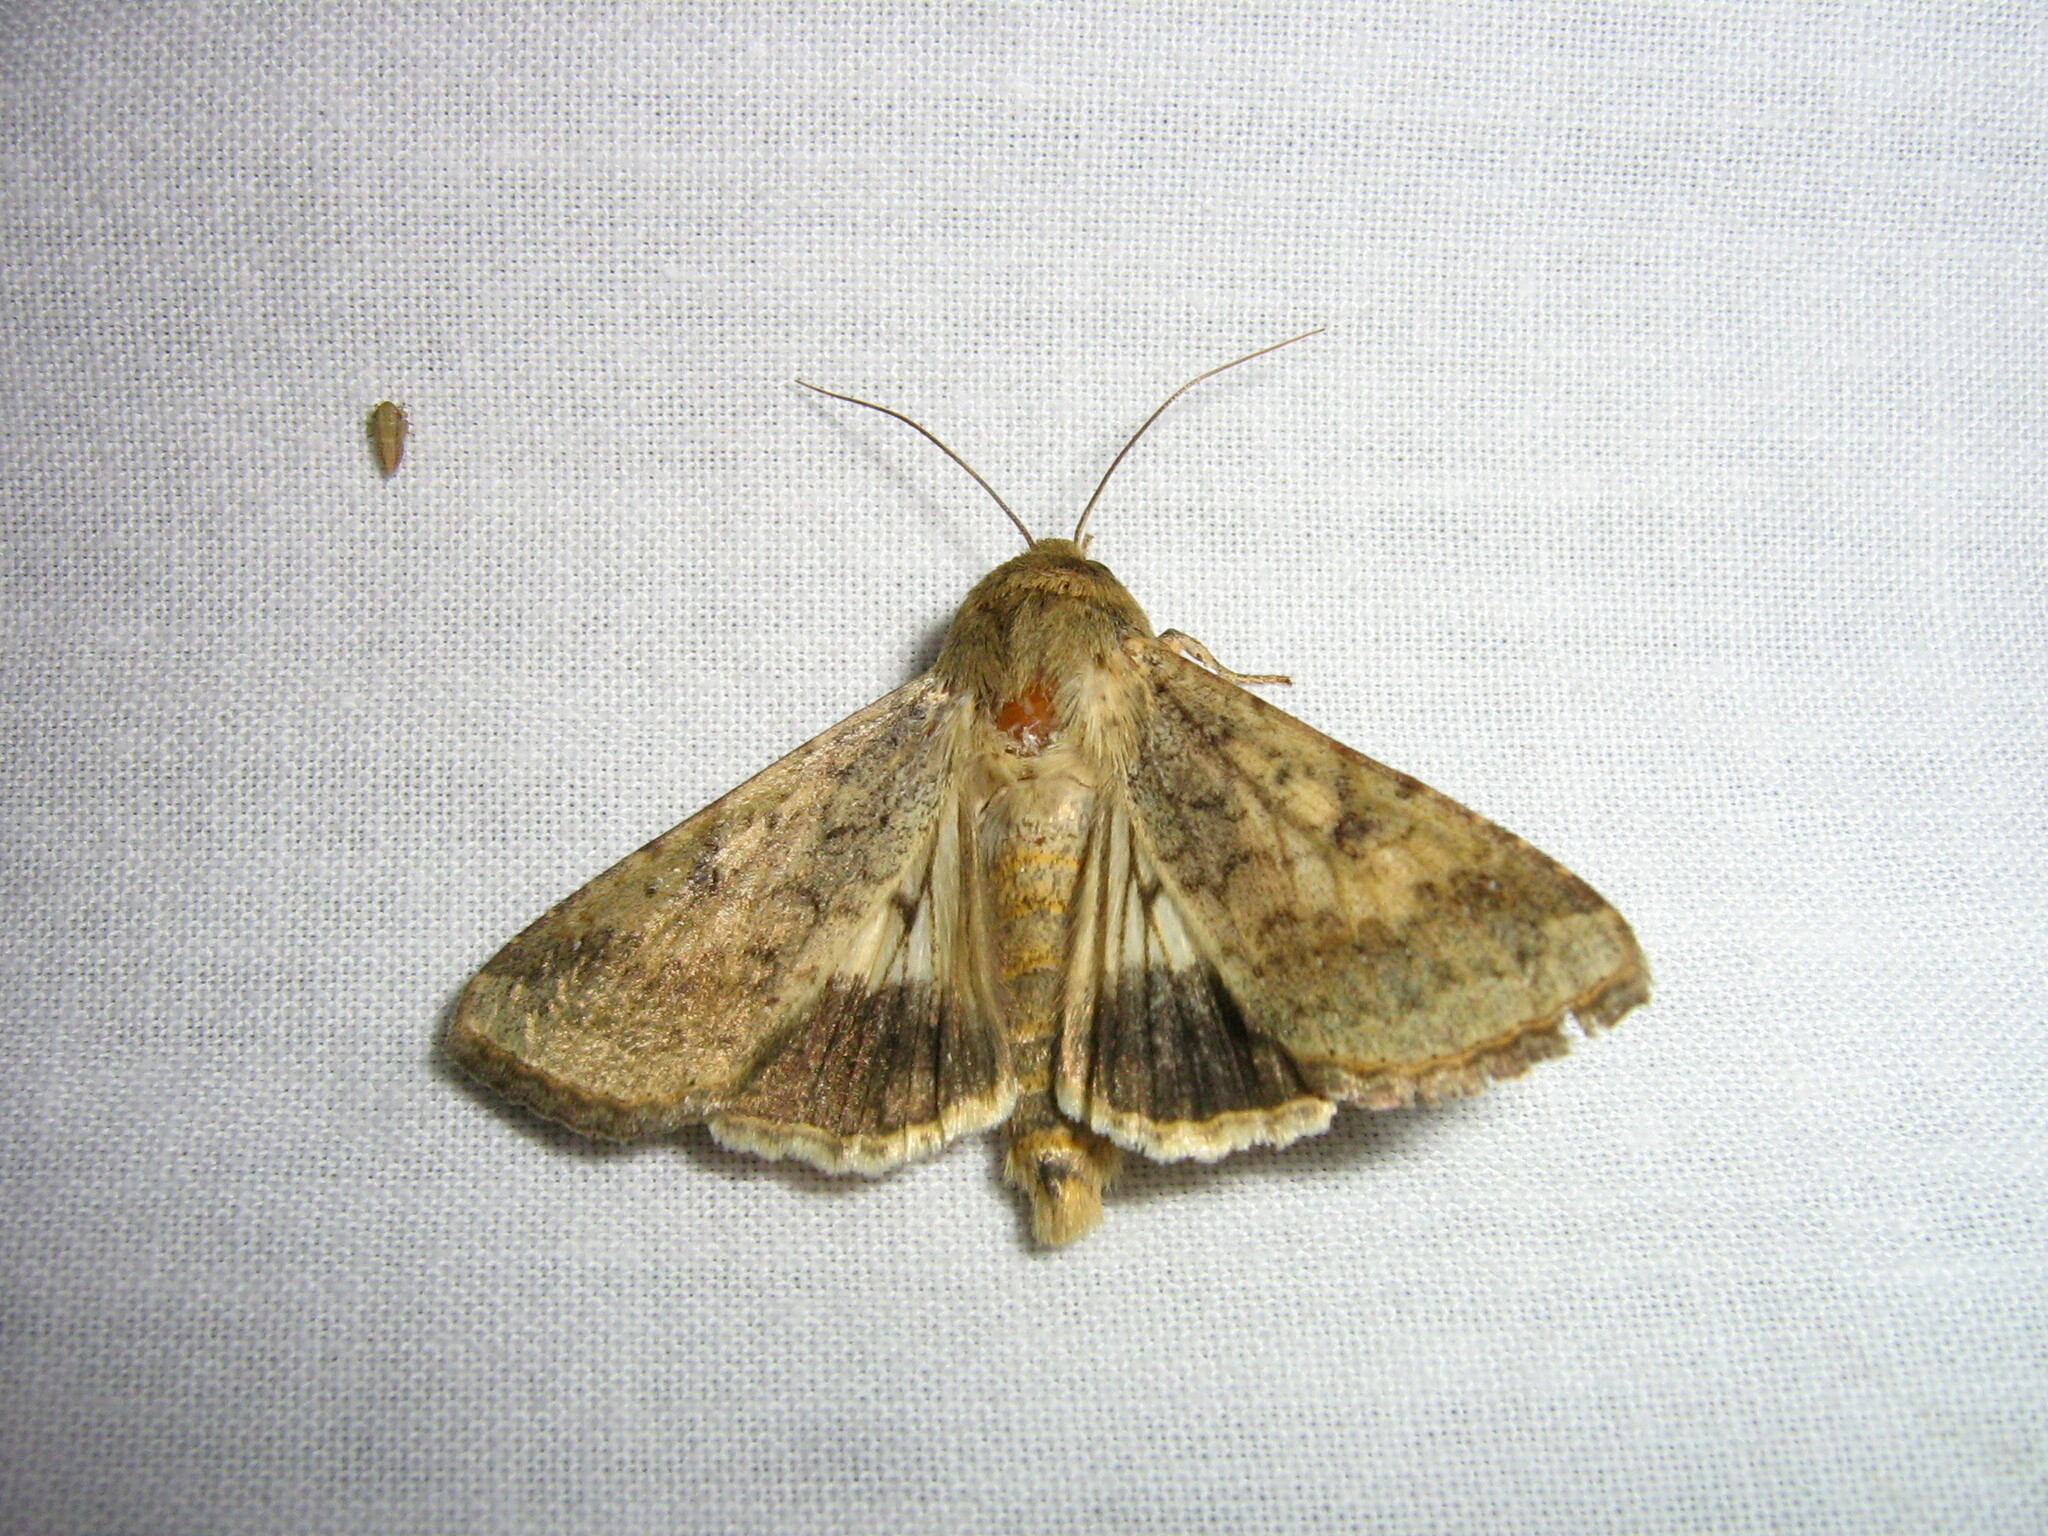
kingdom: Animalia
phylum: Arthropoda
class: Insecta
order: Lepidoptera
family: Noctuidae
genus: Helicoverpa
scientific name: Helicoverpa armigera
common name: Cotton bollworm
